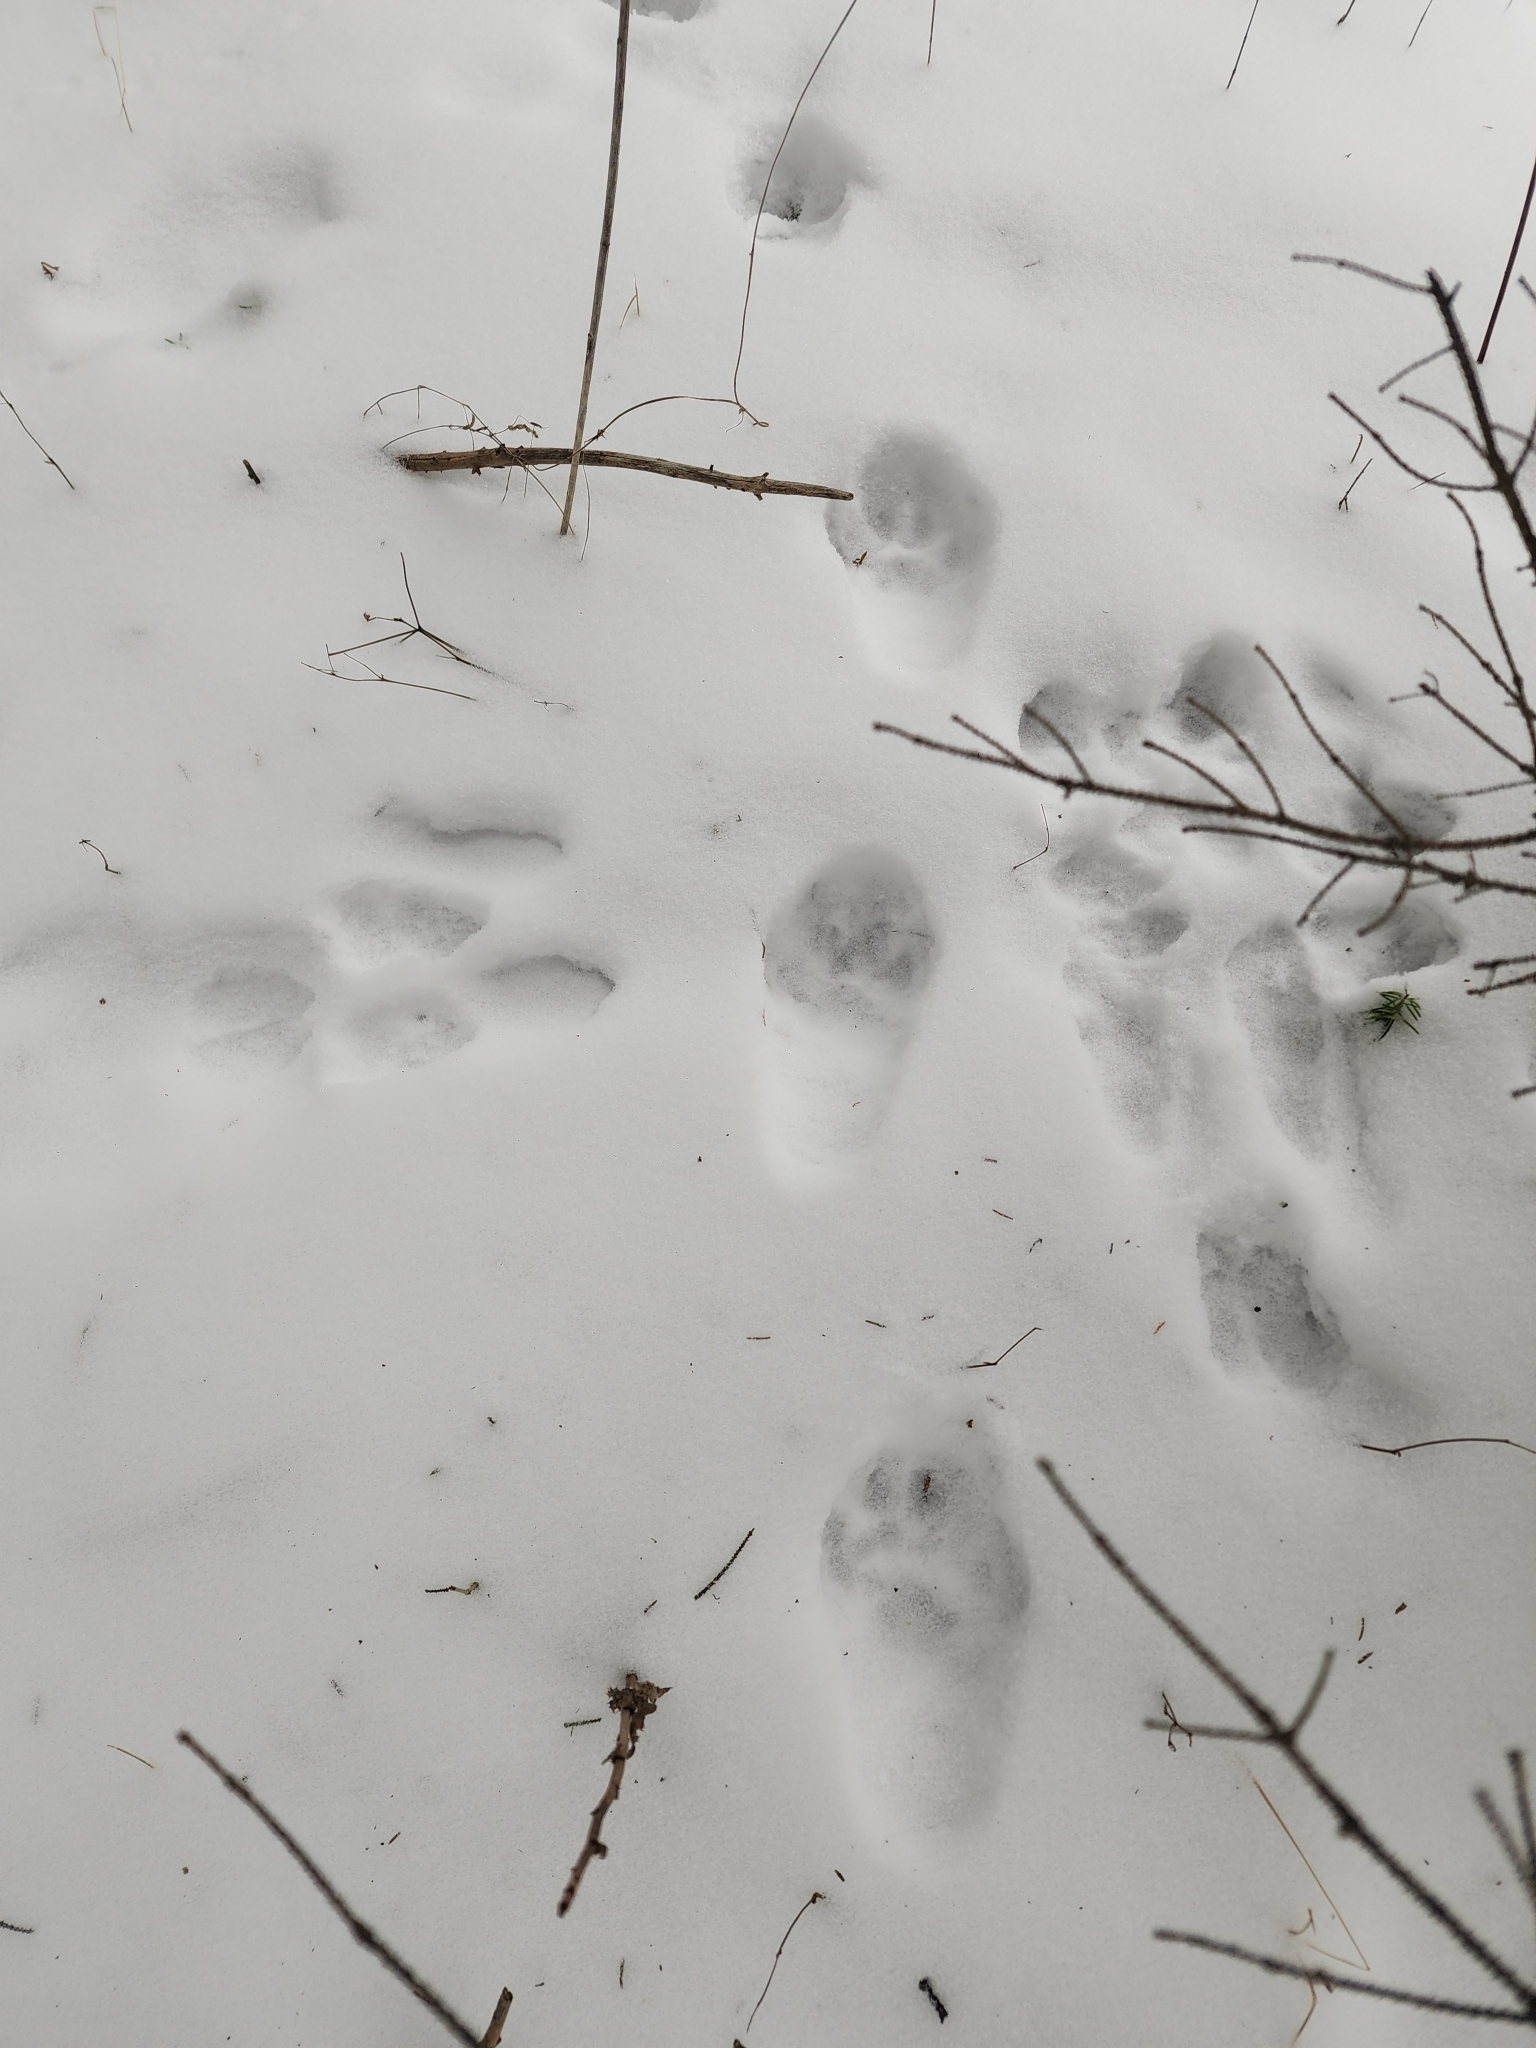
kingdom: Animalia
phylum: Chordata
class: Mammalia
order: Carnivora
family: Felidae
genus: Lynx
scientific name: Lynx canadensis
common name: Canadian lynx
